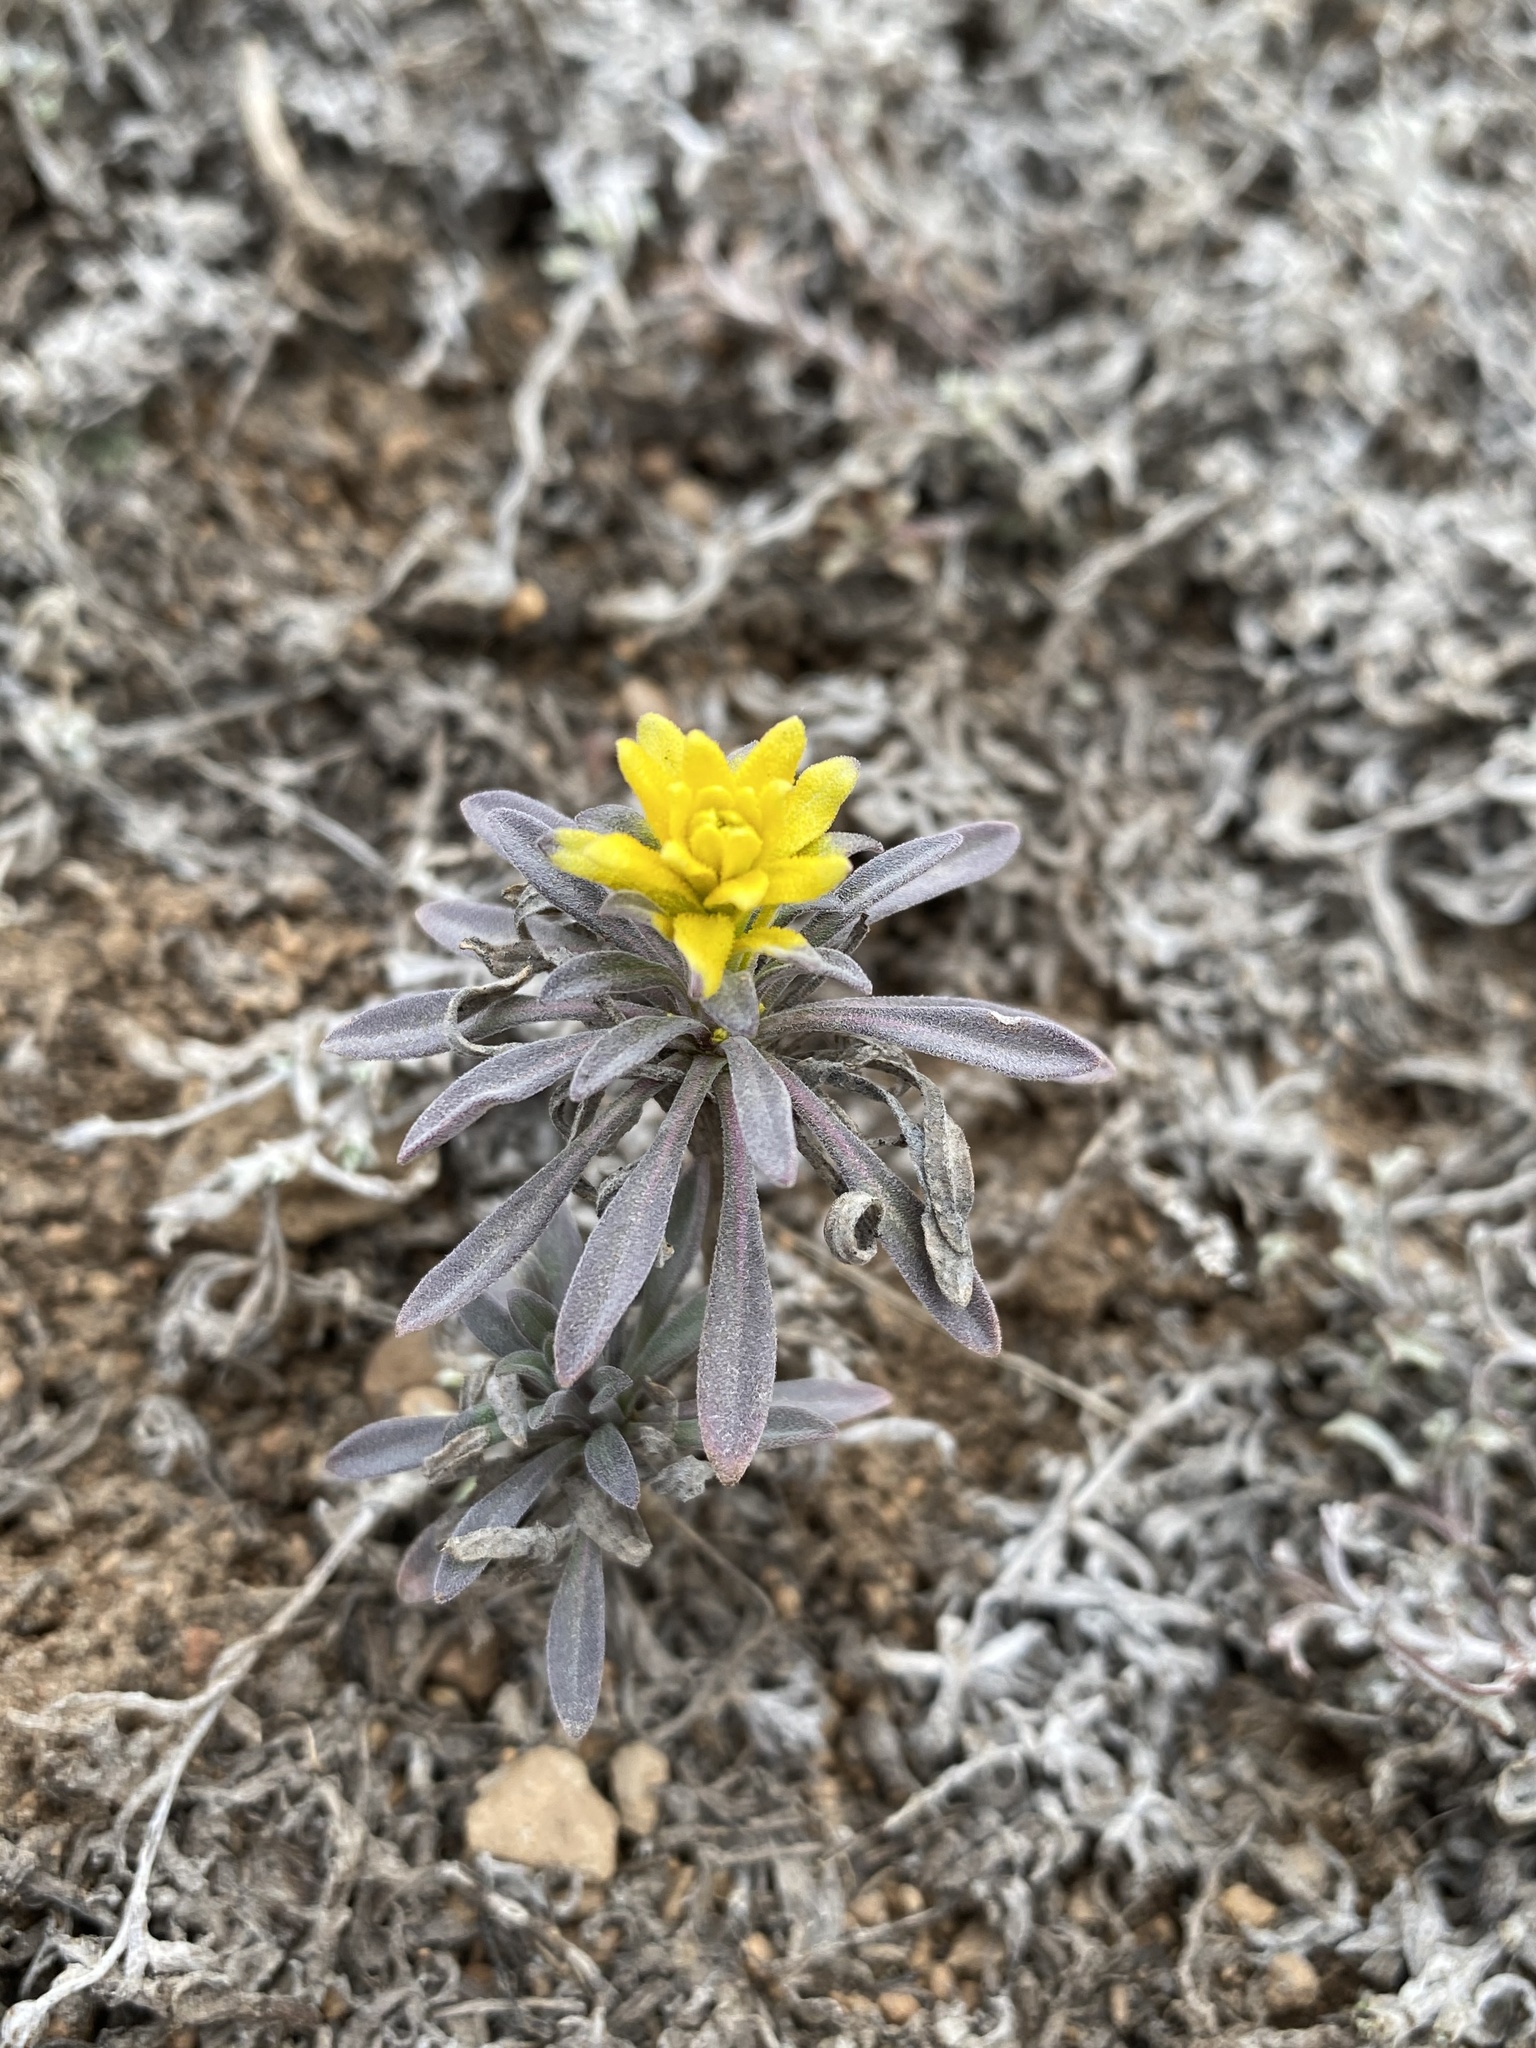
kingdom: Fungi
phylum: Basidiomycota
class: Pucciniomycetes
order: Pucciniales
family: Pucciniaceae
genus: Puccinia
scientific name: Puccinia monoica
